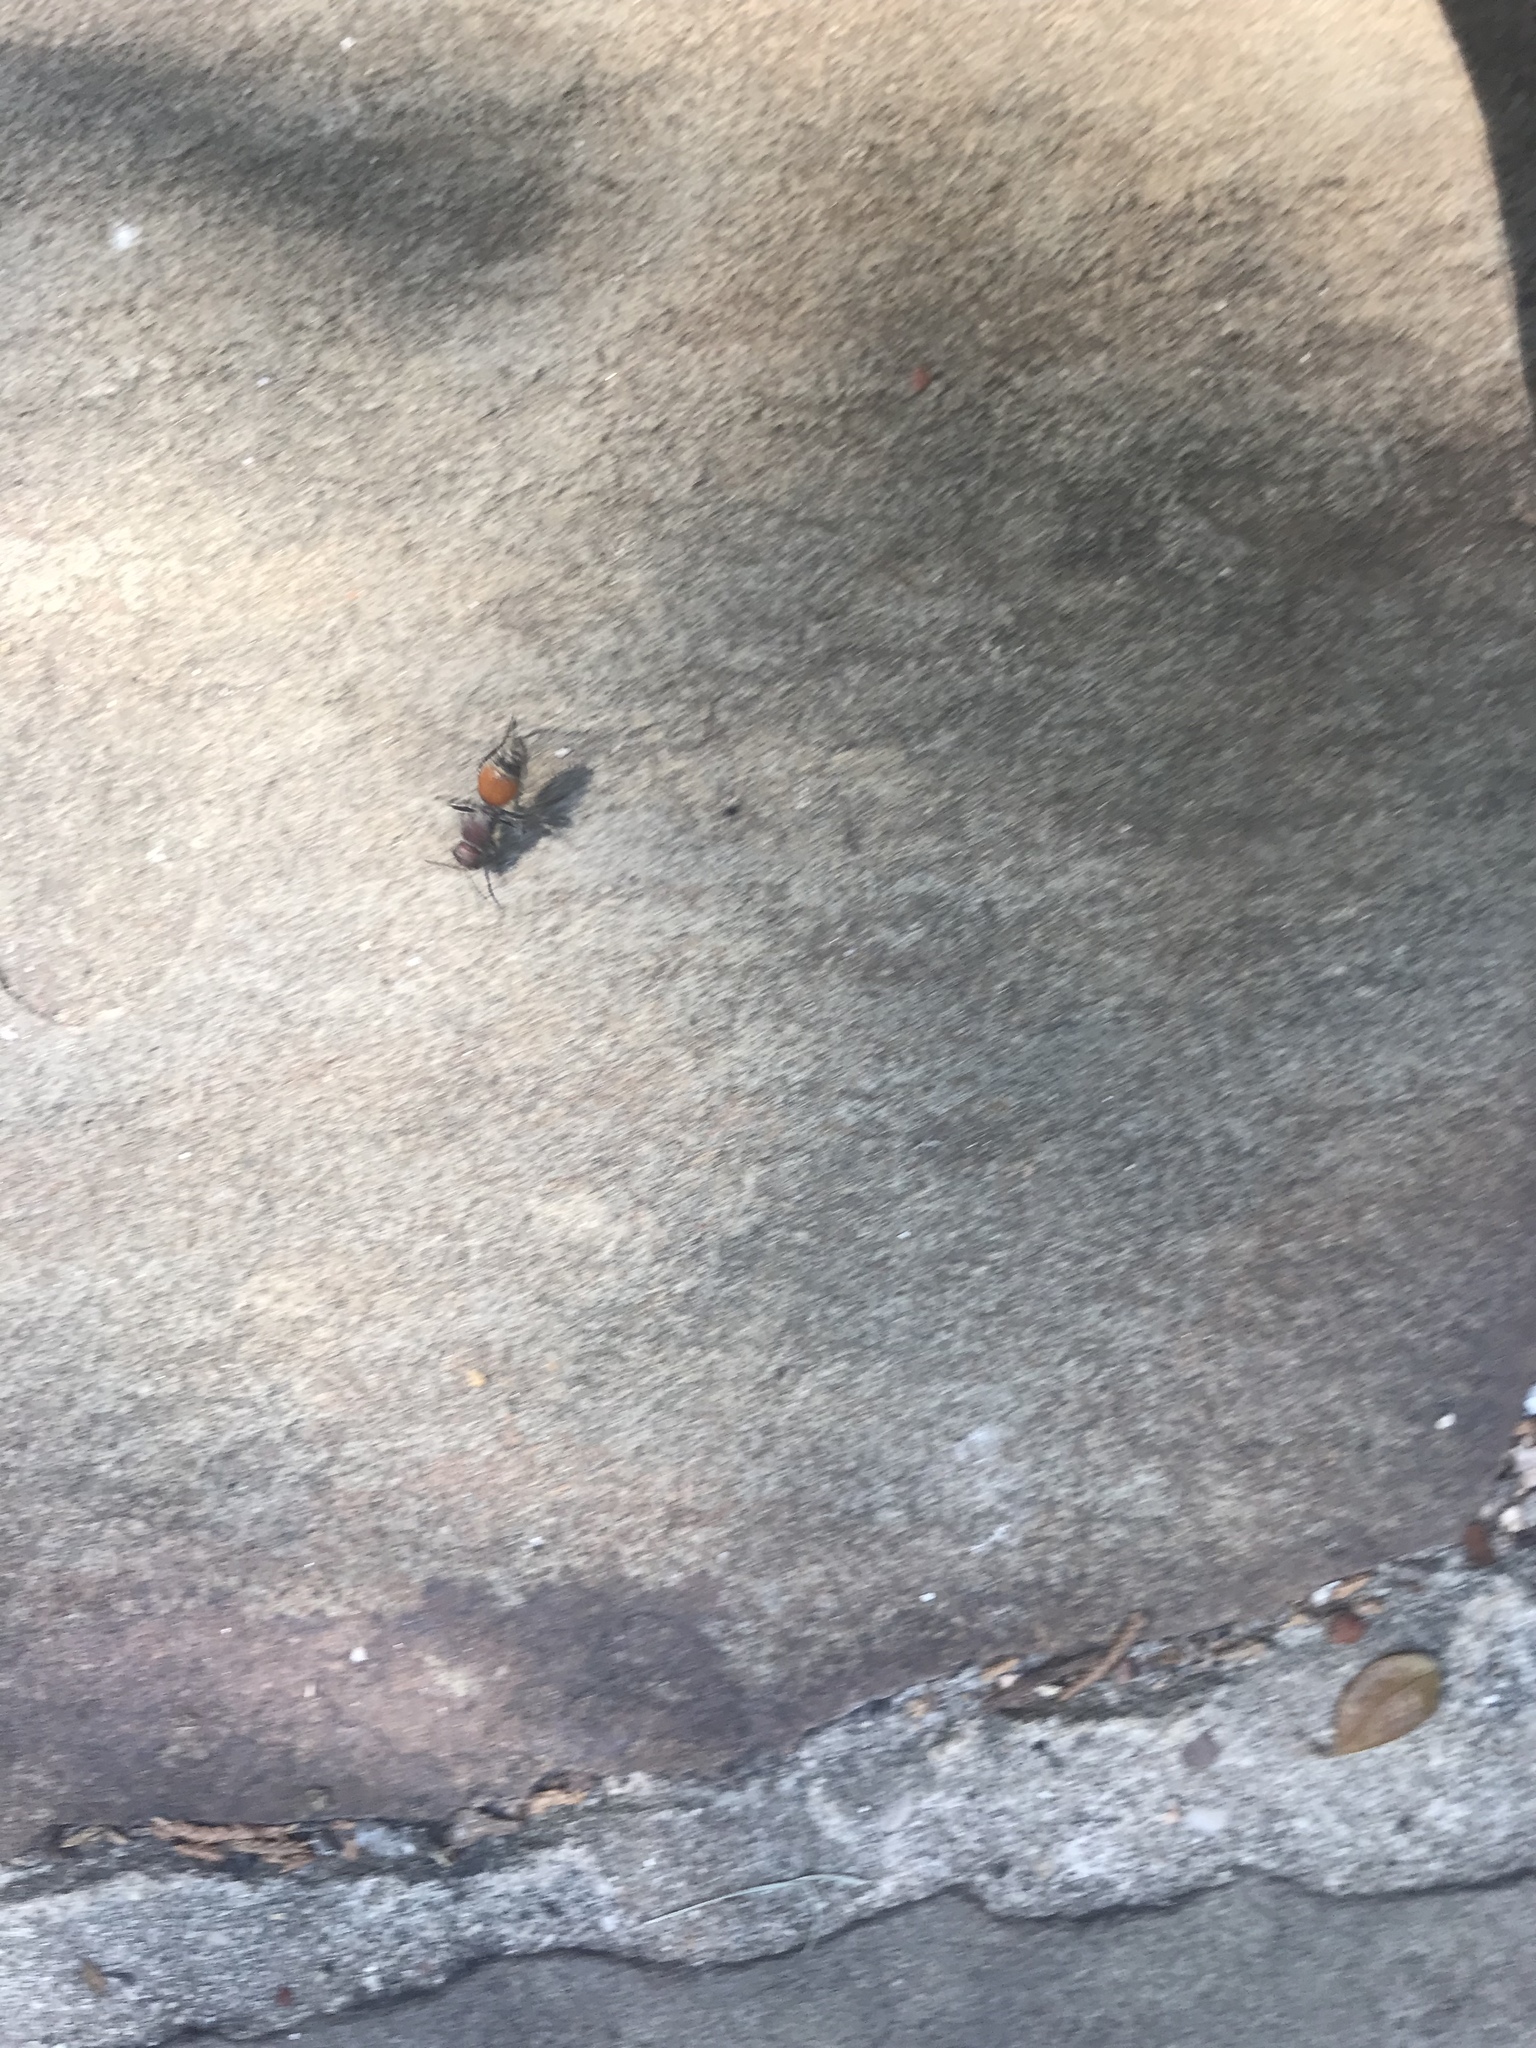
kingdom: Animalia
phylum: Arthropoda
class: Insecta
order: Hymenoptera
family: Mutillidae
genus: Dasymutilla
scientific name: Dasymutilla
